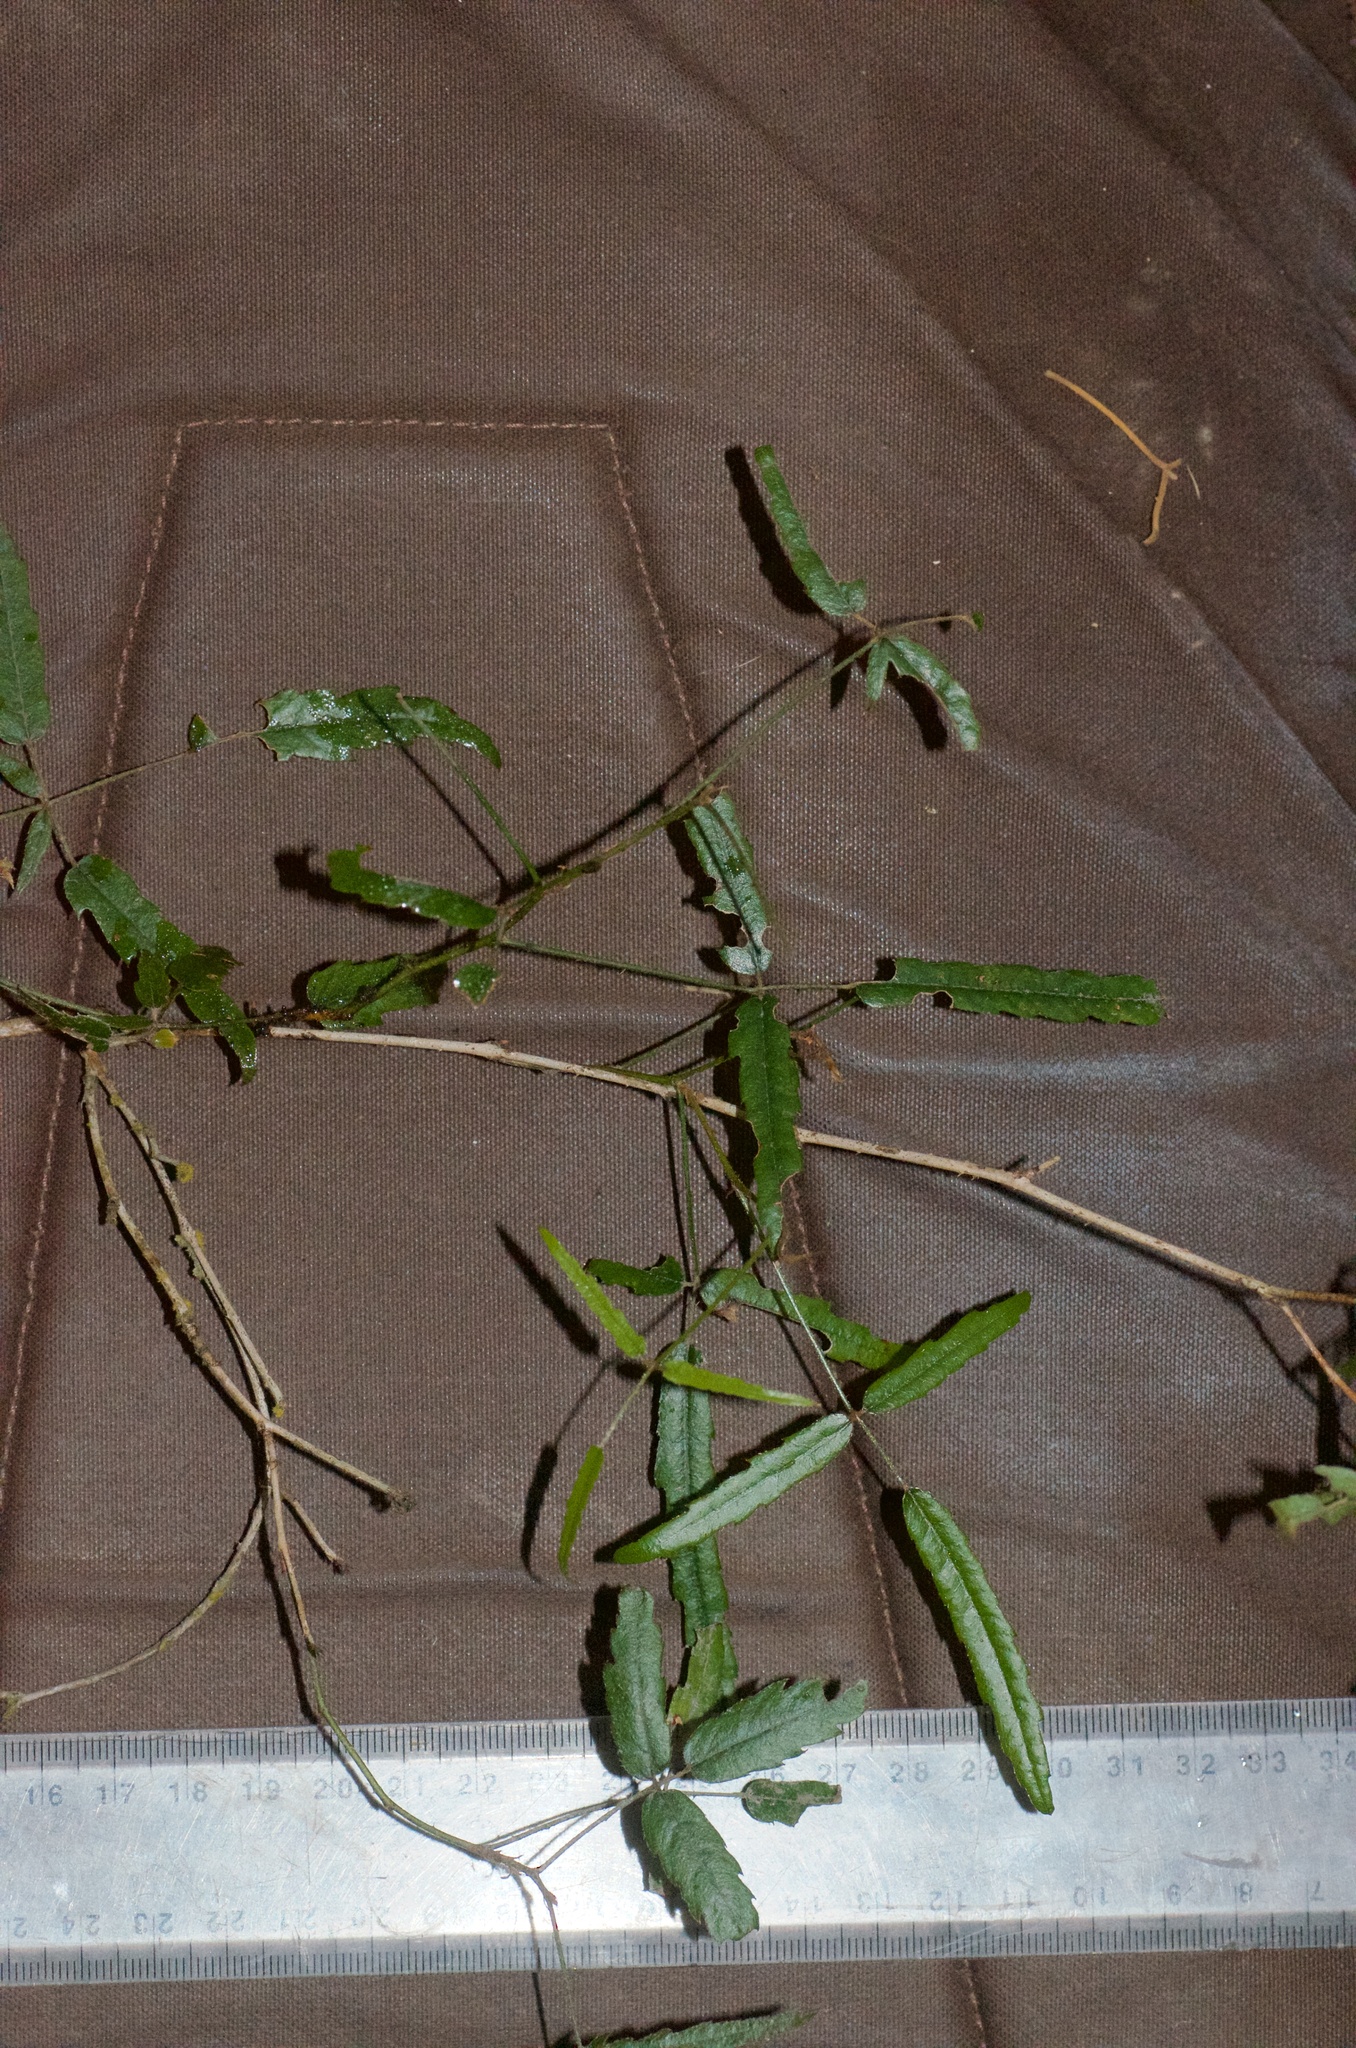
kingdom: Plantae
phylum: Tracheophyta
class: Magnoliopsida
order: Rosales
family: Rosaceae
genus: Rubus
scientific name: Rubus schmidelioides
